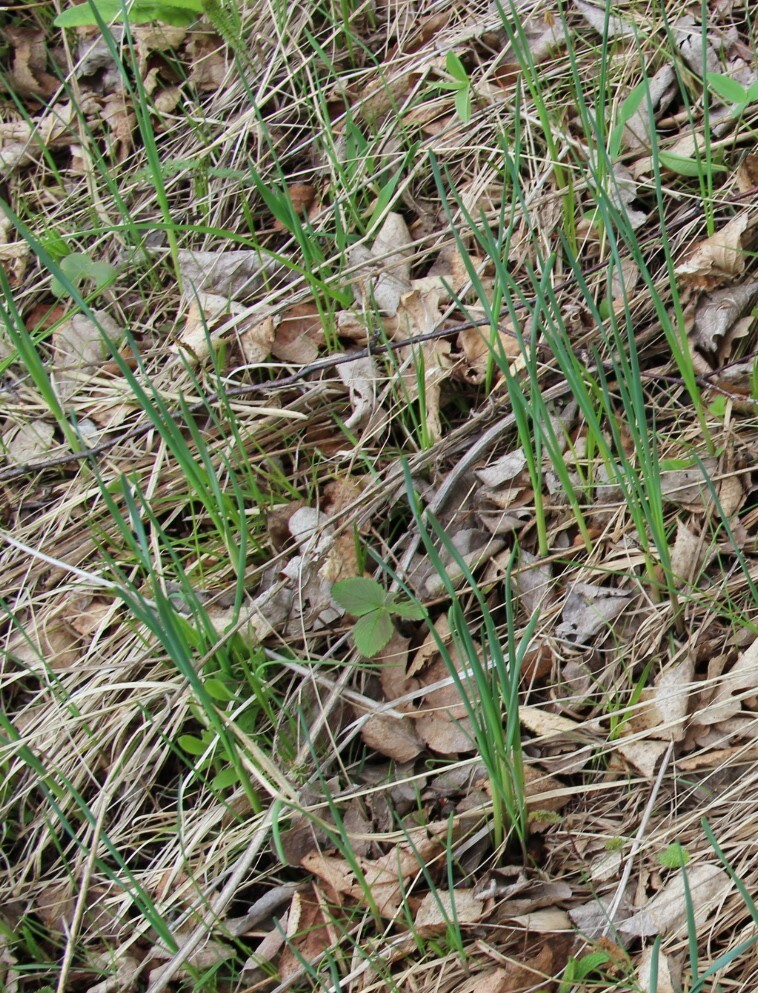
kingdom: Plantae
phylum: Tracheophyta
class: Liliopsida
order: Asparagales
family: Amaryllidaceae
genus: Allium
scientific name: Allium oleraceum
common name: Field garlic
